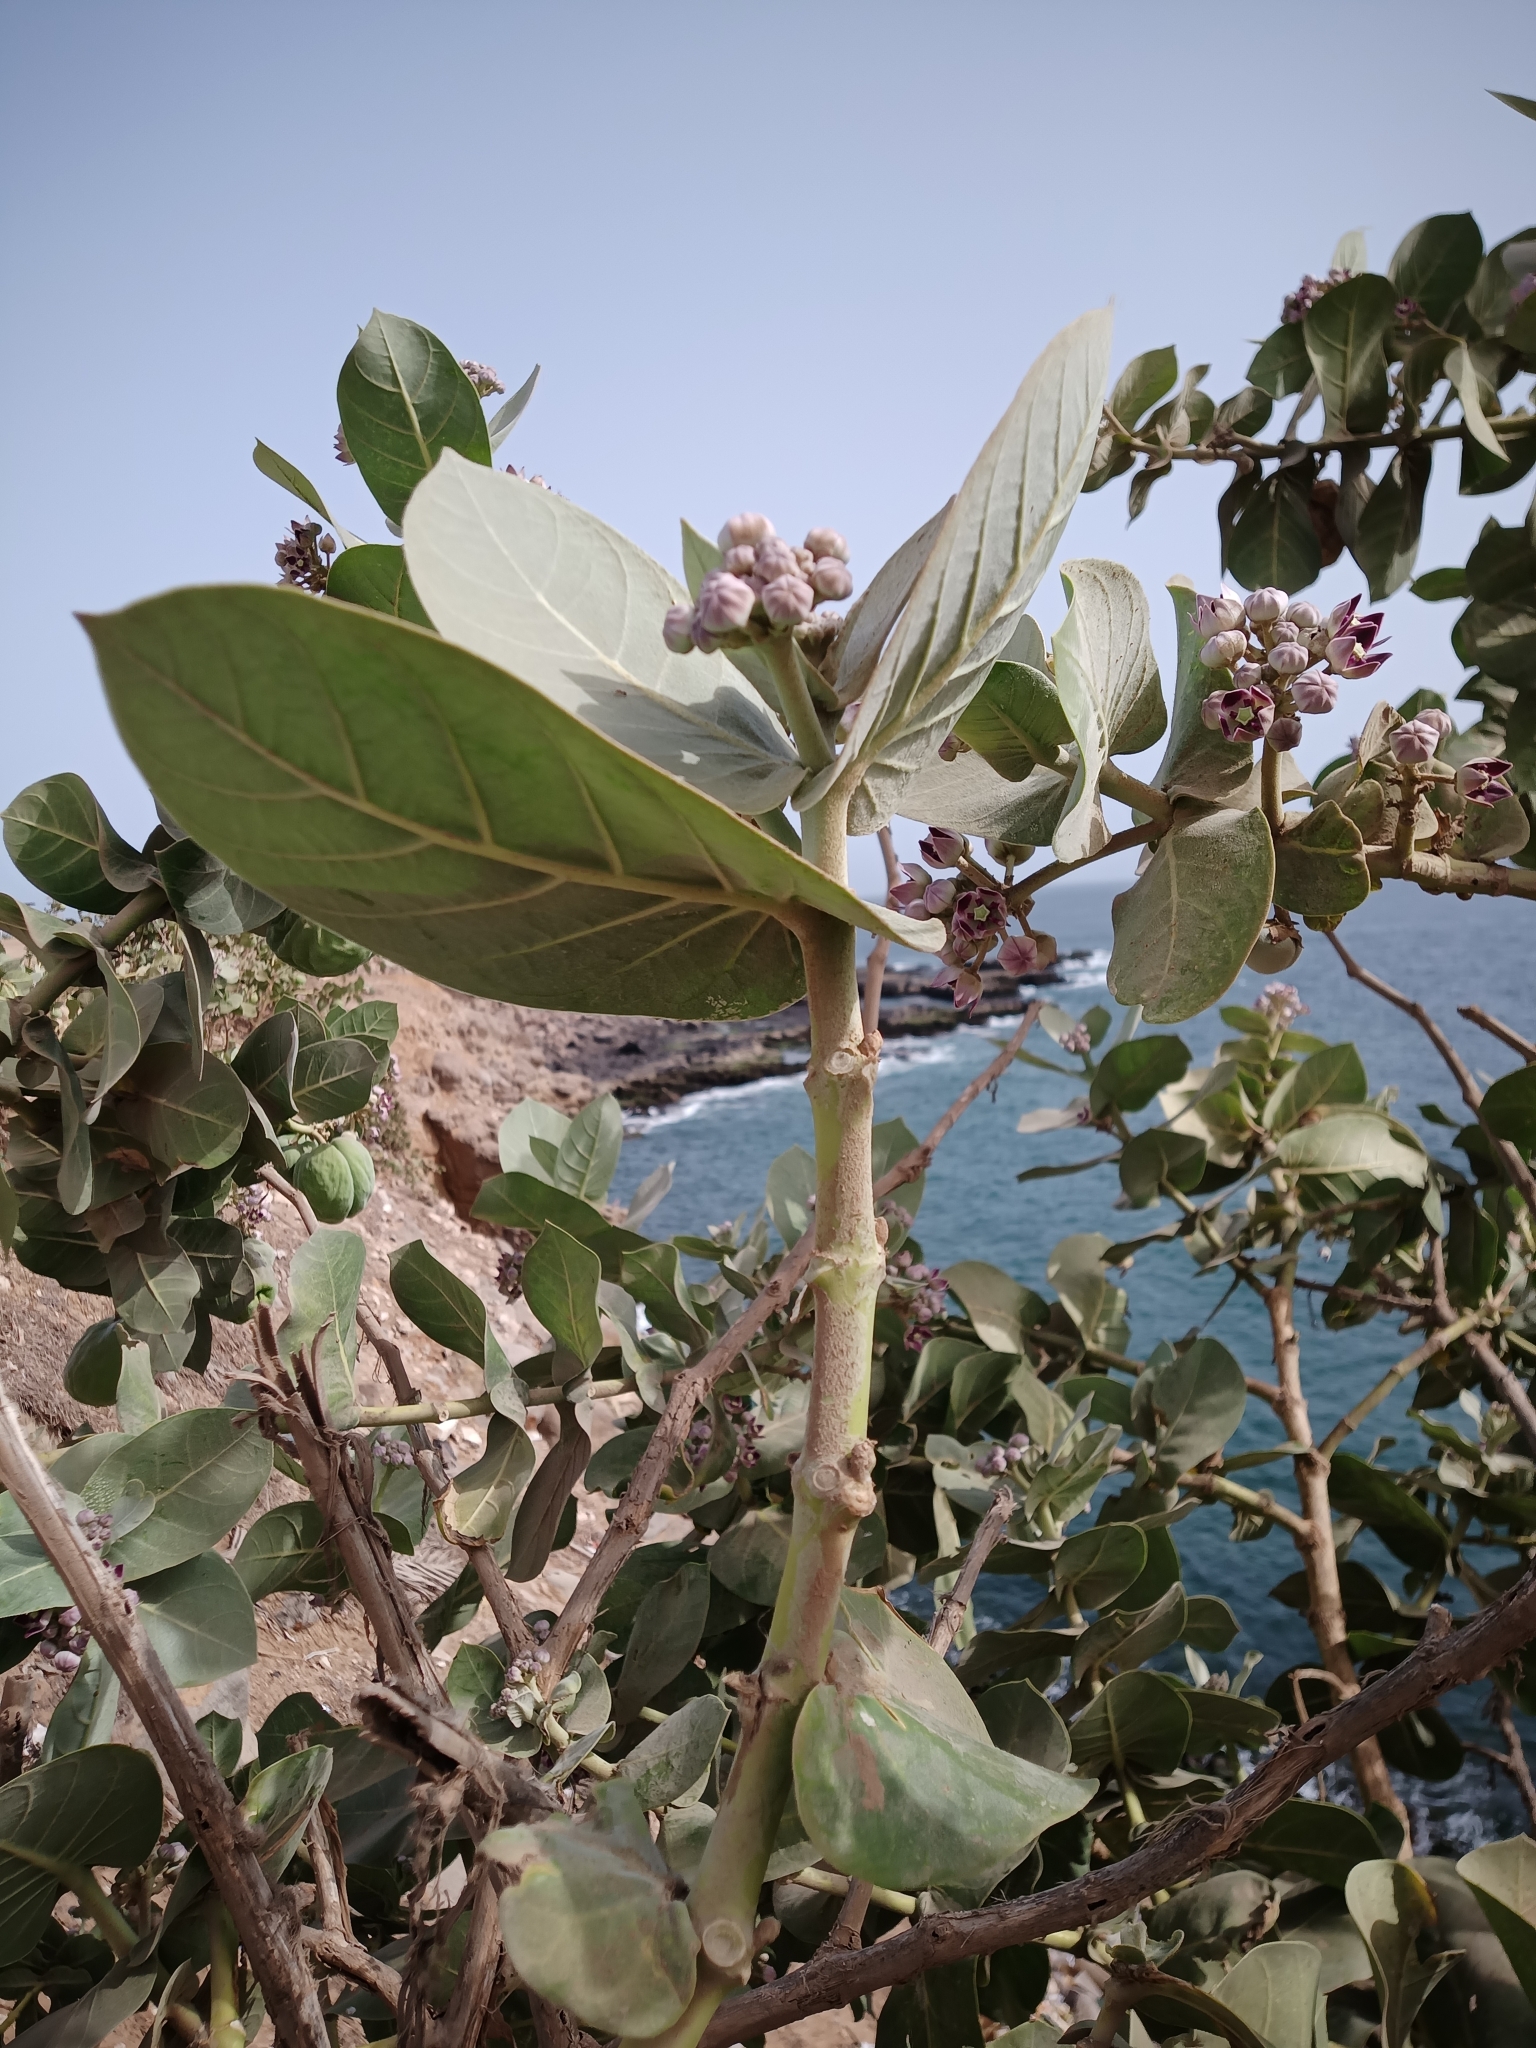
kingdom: Plantae
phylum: Tracheophyta
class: Magnoliopsida
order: Gentianales
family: Apocynaceae
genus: Calotropis
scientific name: Calotropis procera
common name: Roostertree
